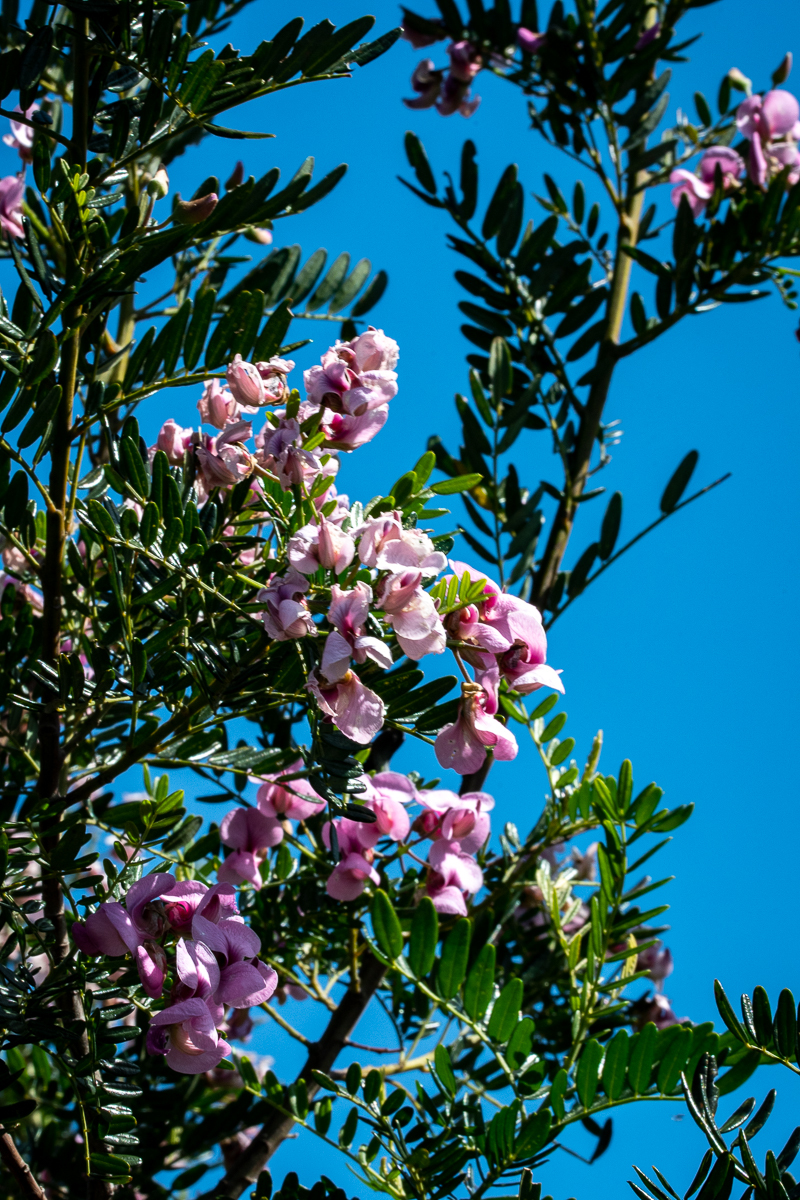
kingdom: Plantae
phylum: Tracheophyta
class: Magnoliopsida
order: Fabales
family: Fabaceae
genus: Virgilia
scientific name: Virgilia oroboides
